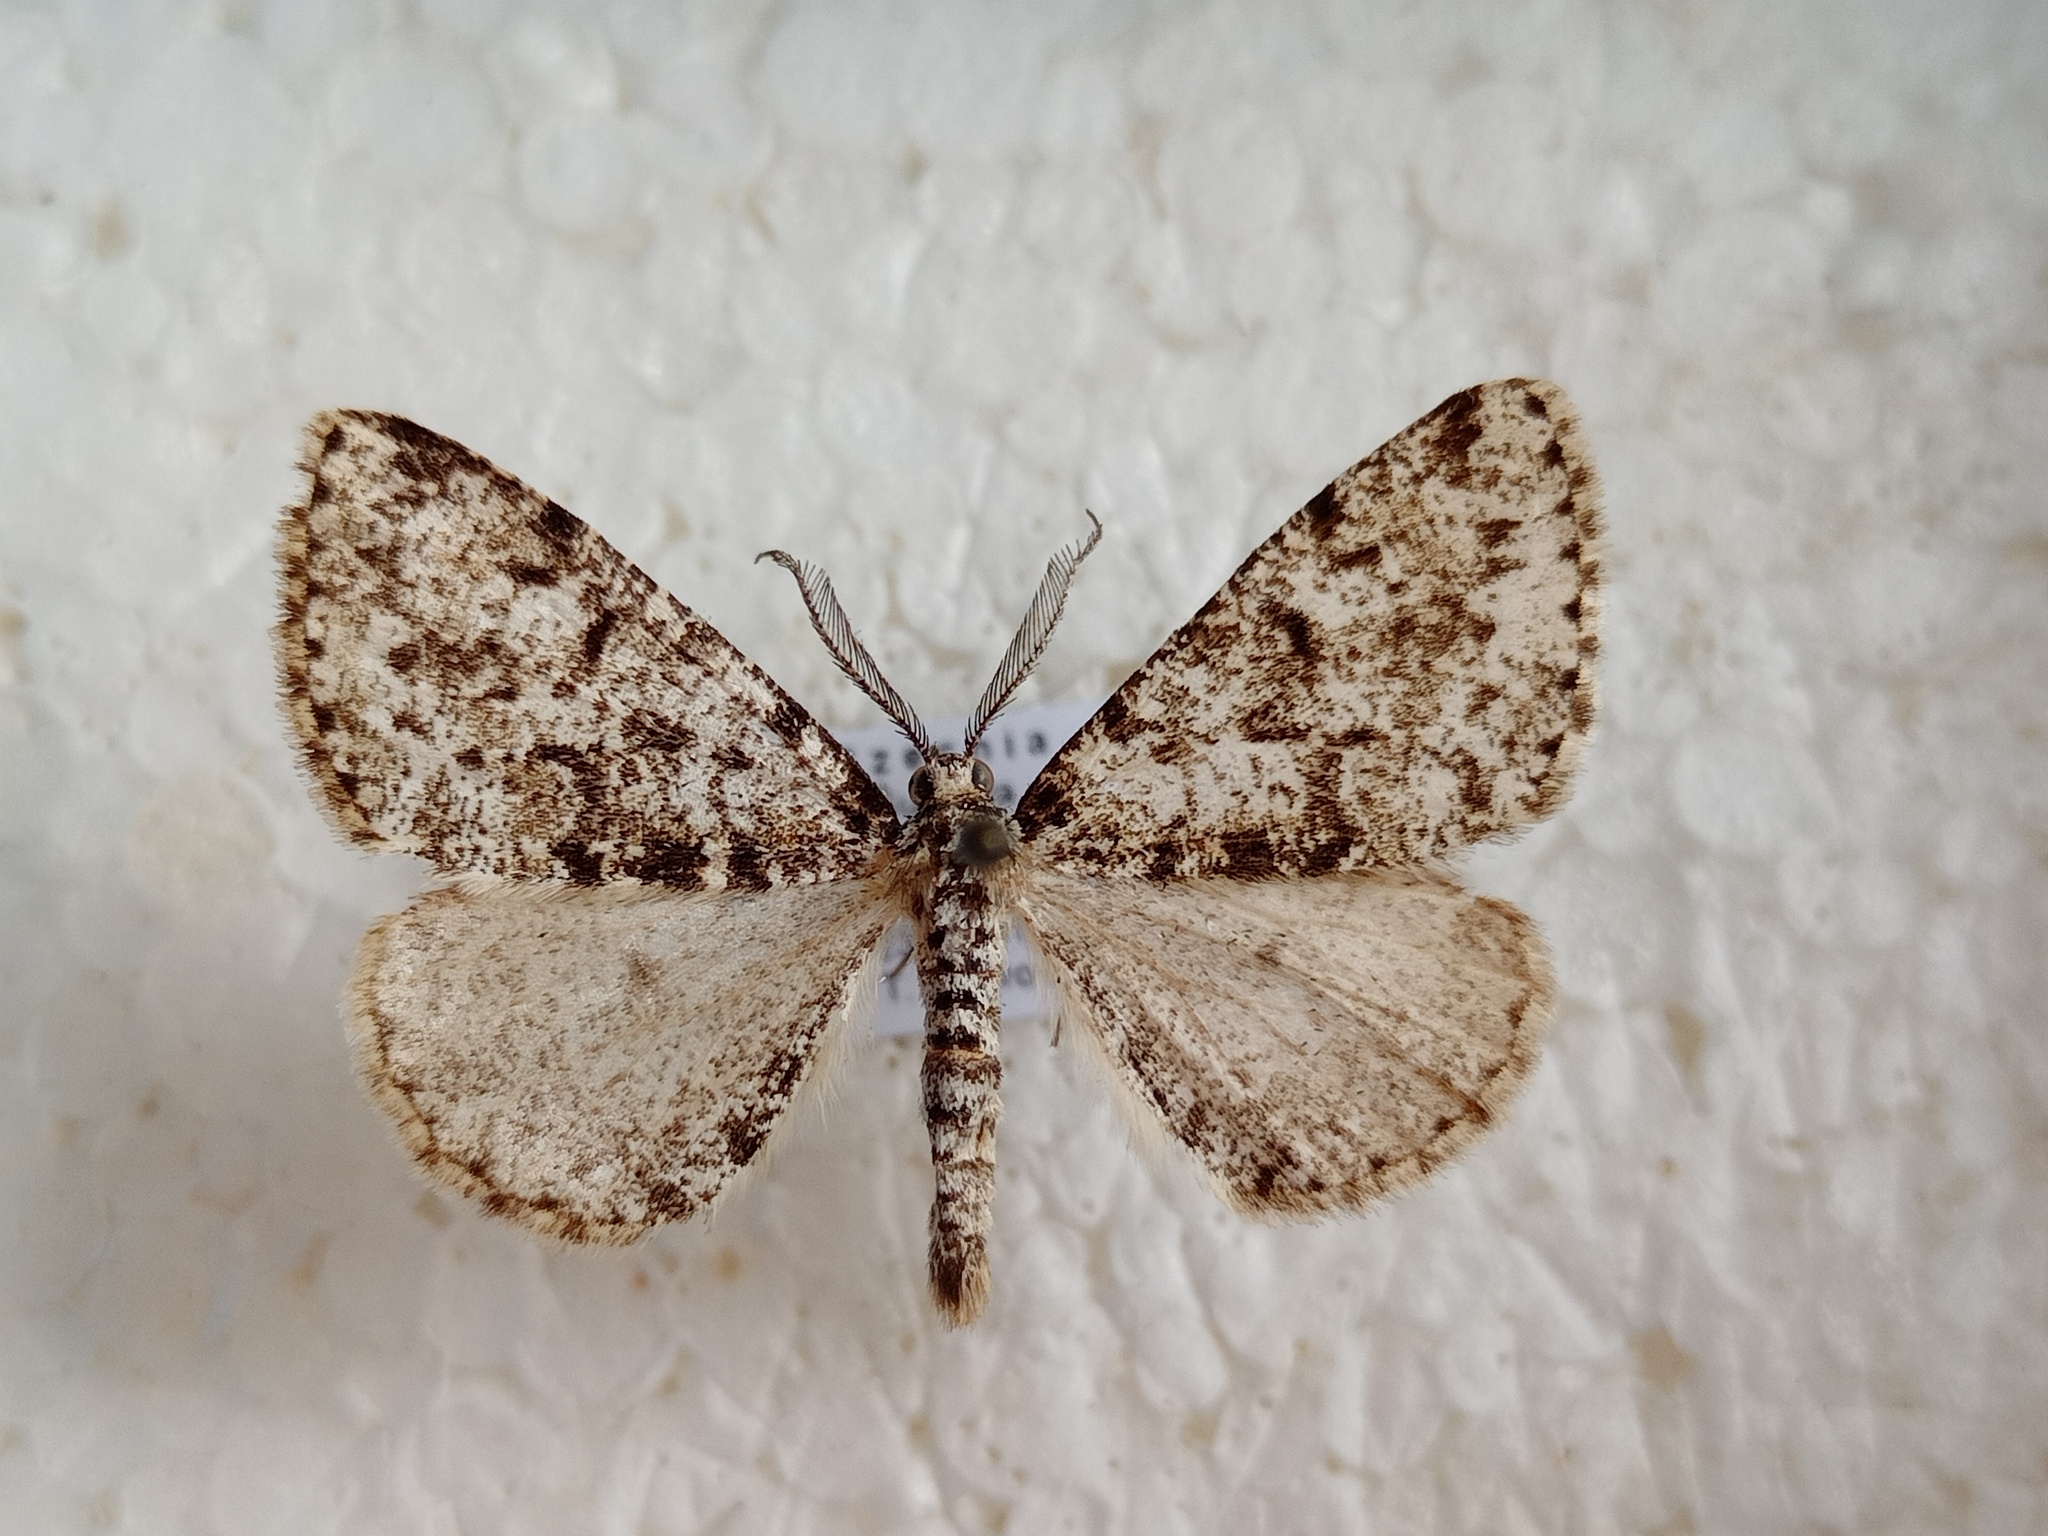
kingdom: Animalia
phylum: Arthropoda
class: Insecta
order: Lepidoptera
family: Geometridae
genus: Fagivorina
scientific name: Fagivorina arenaria
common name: Speckled beauty
